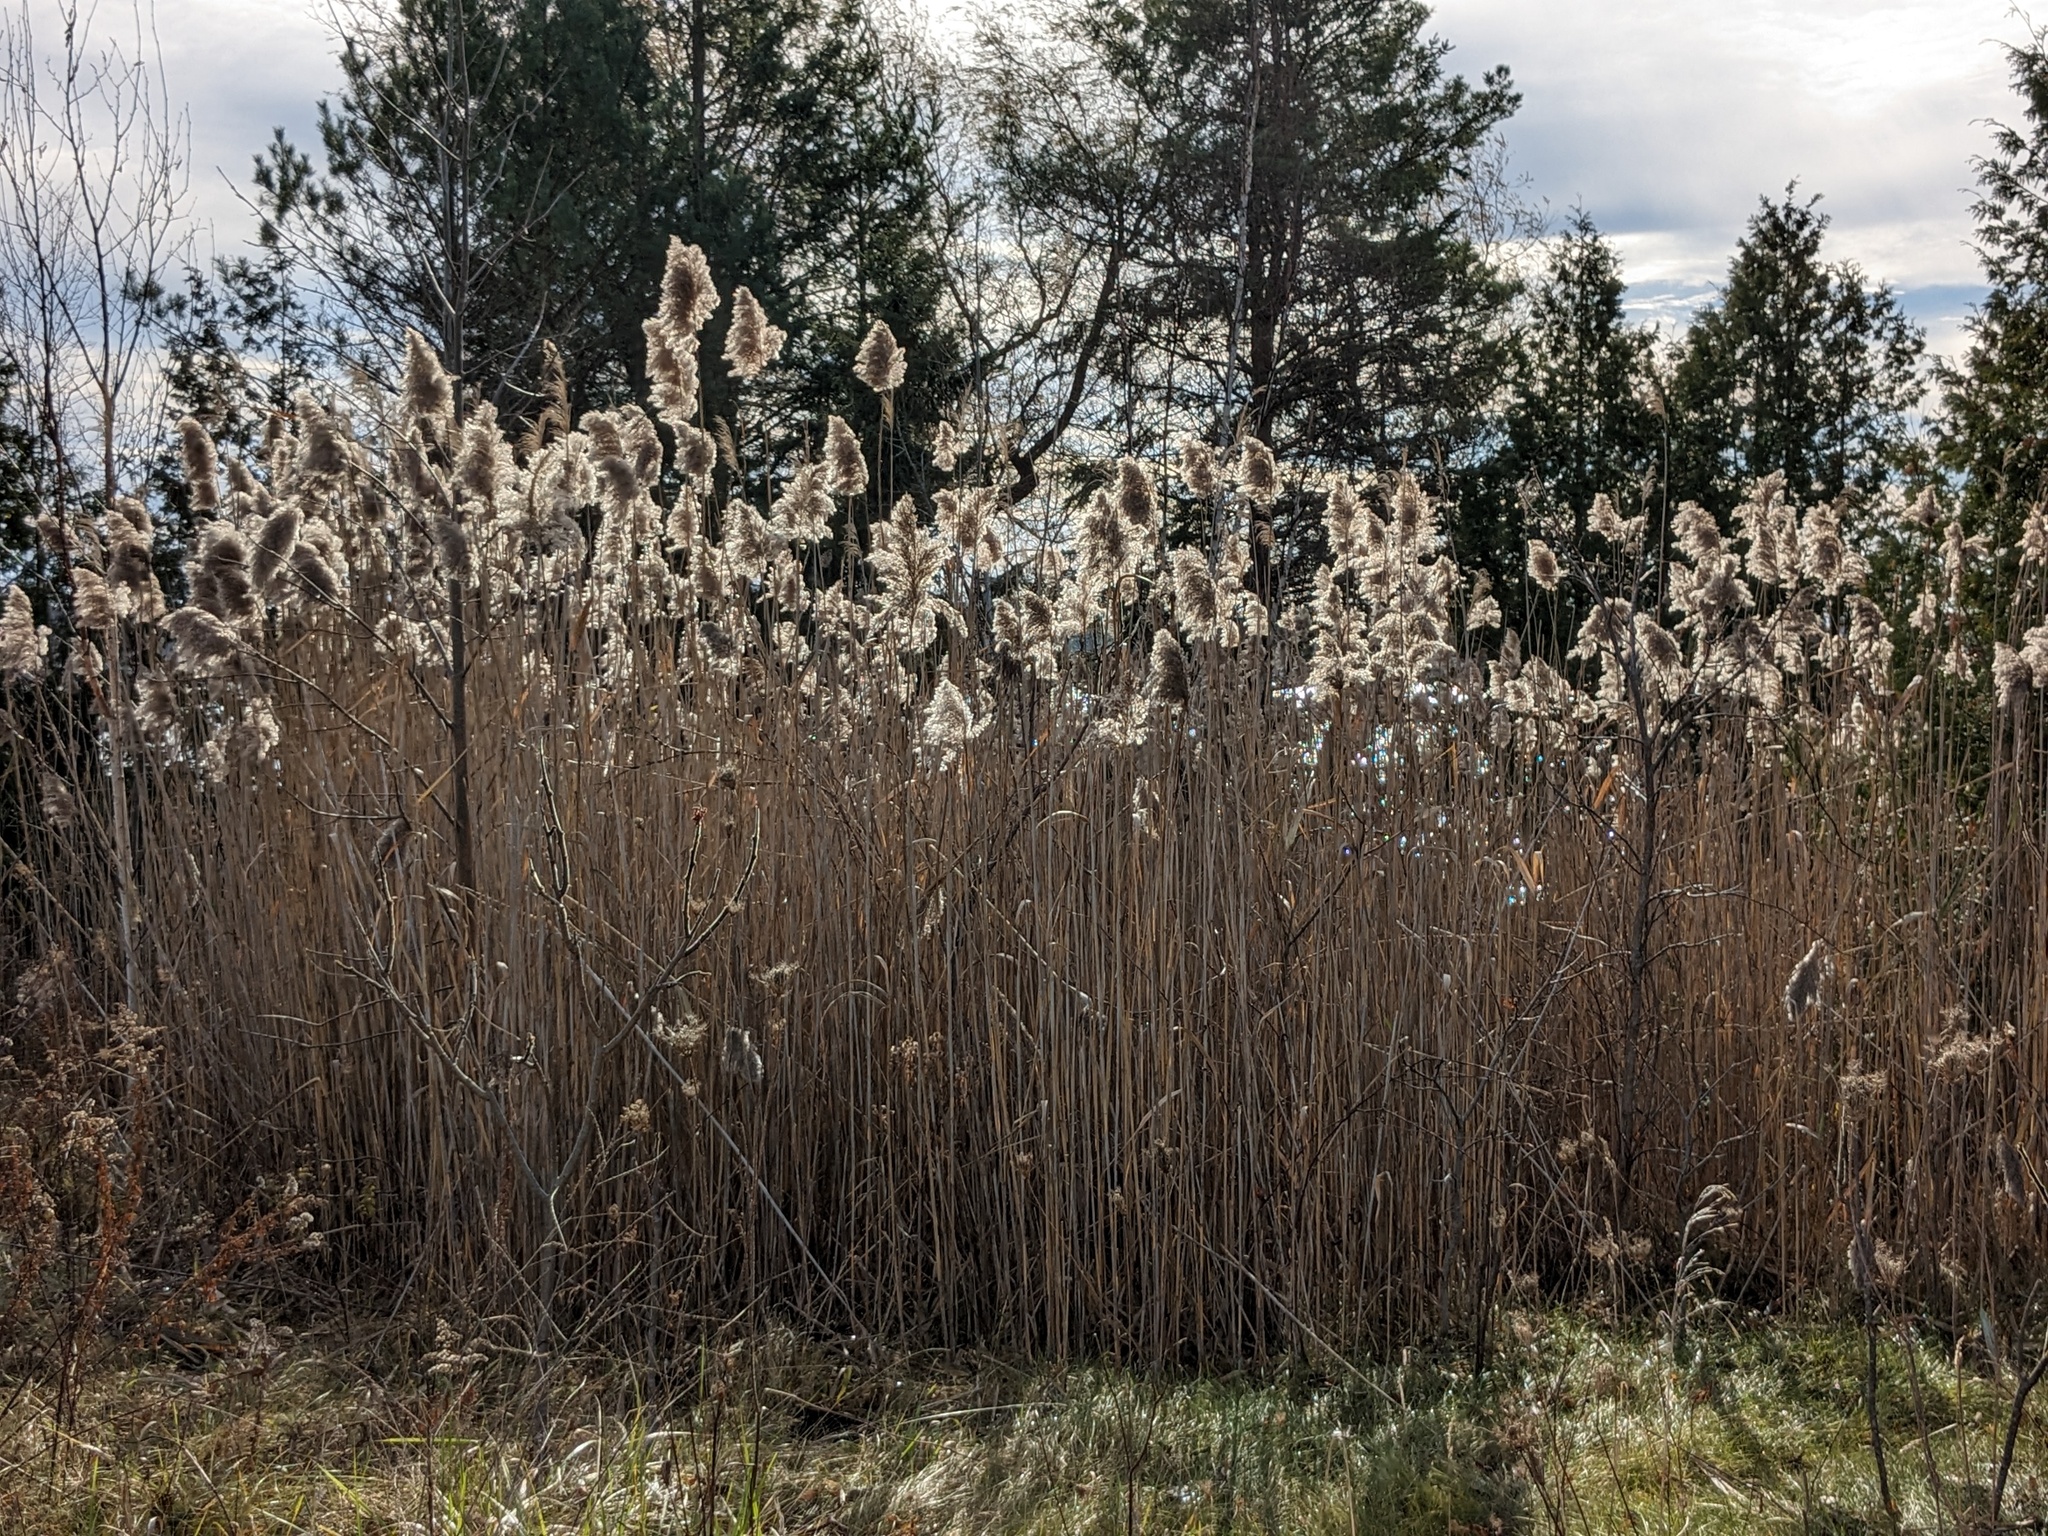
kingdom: Plantae
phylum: Tracheophyta
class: Liliopsida
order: Poales
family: Poaceae
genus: Phragmites
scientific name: Phragmites australis
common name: Common reed
